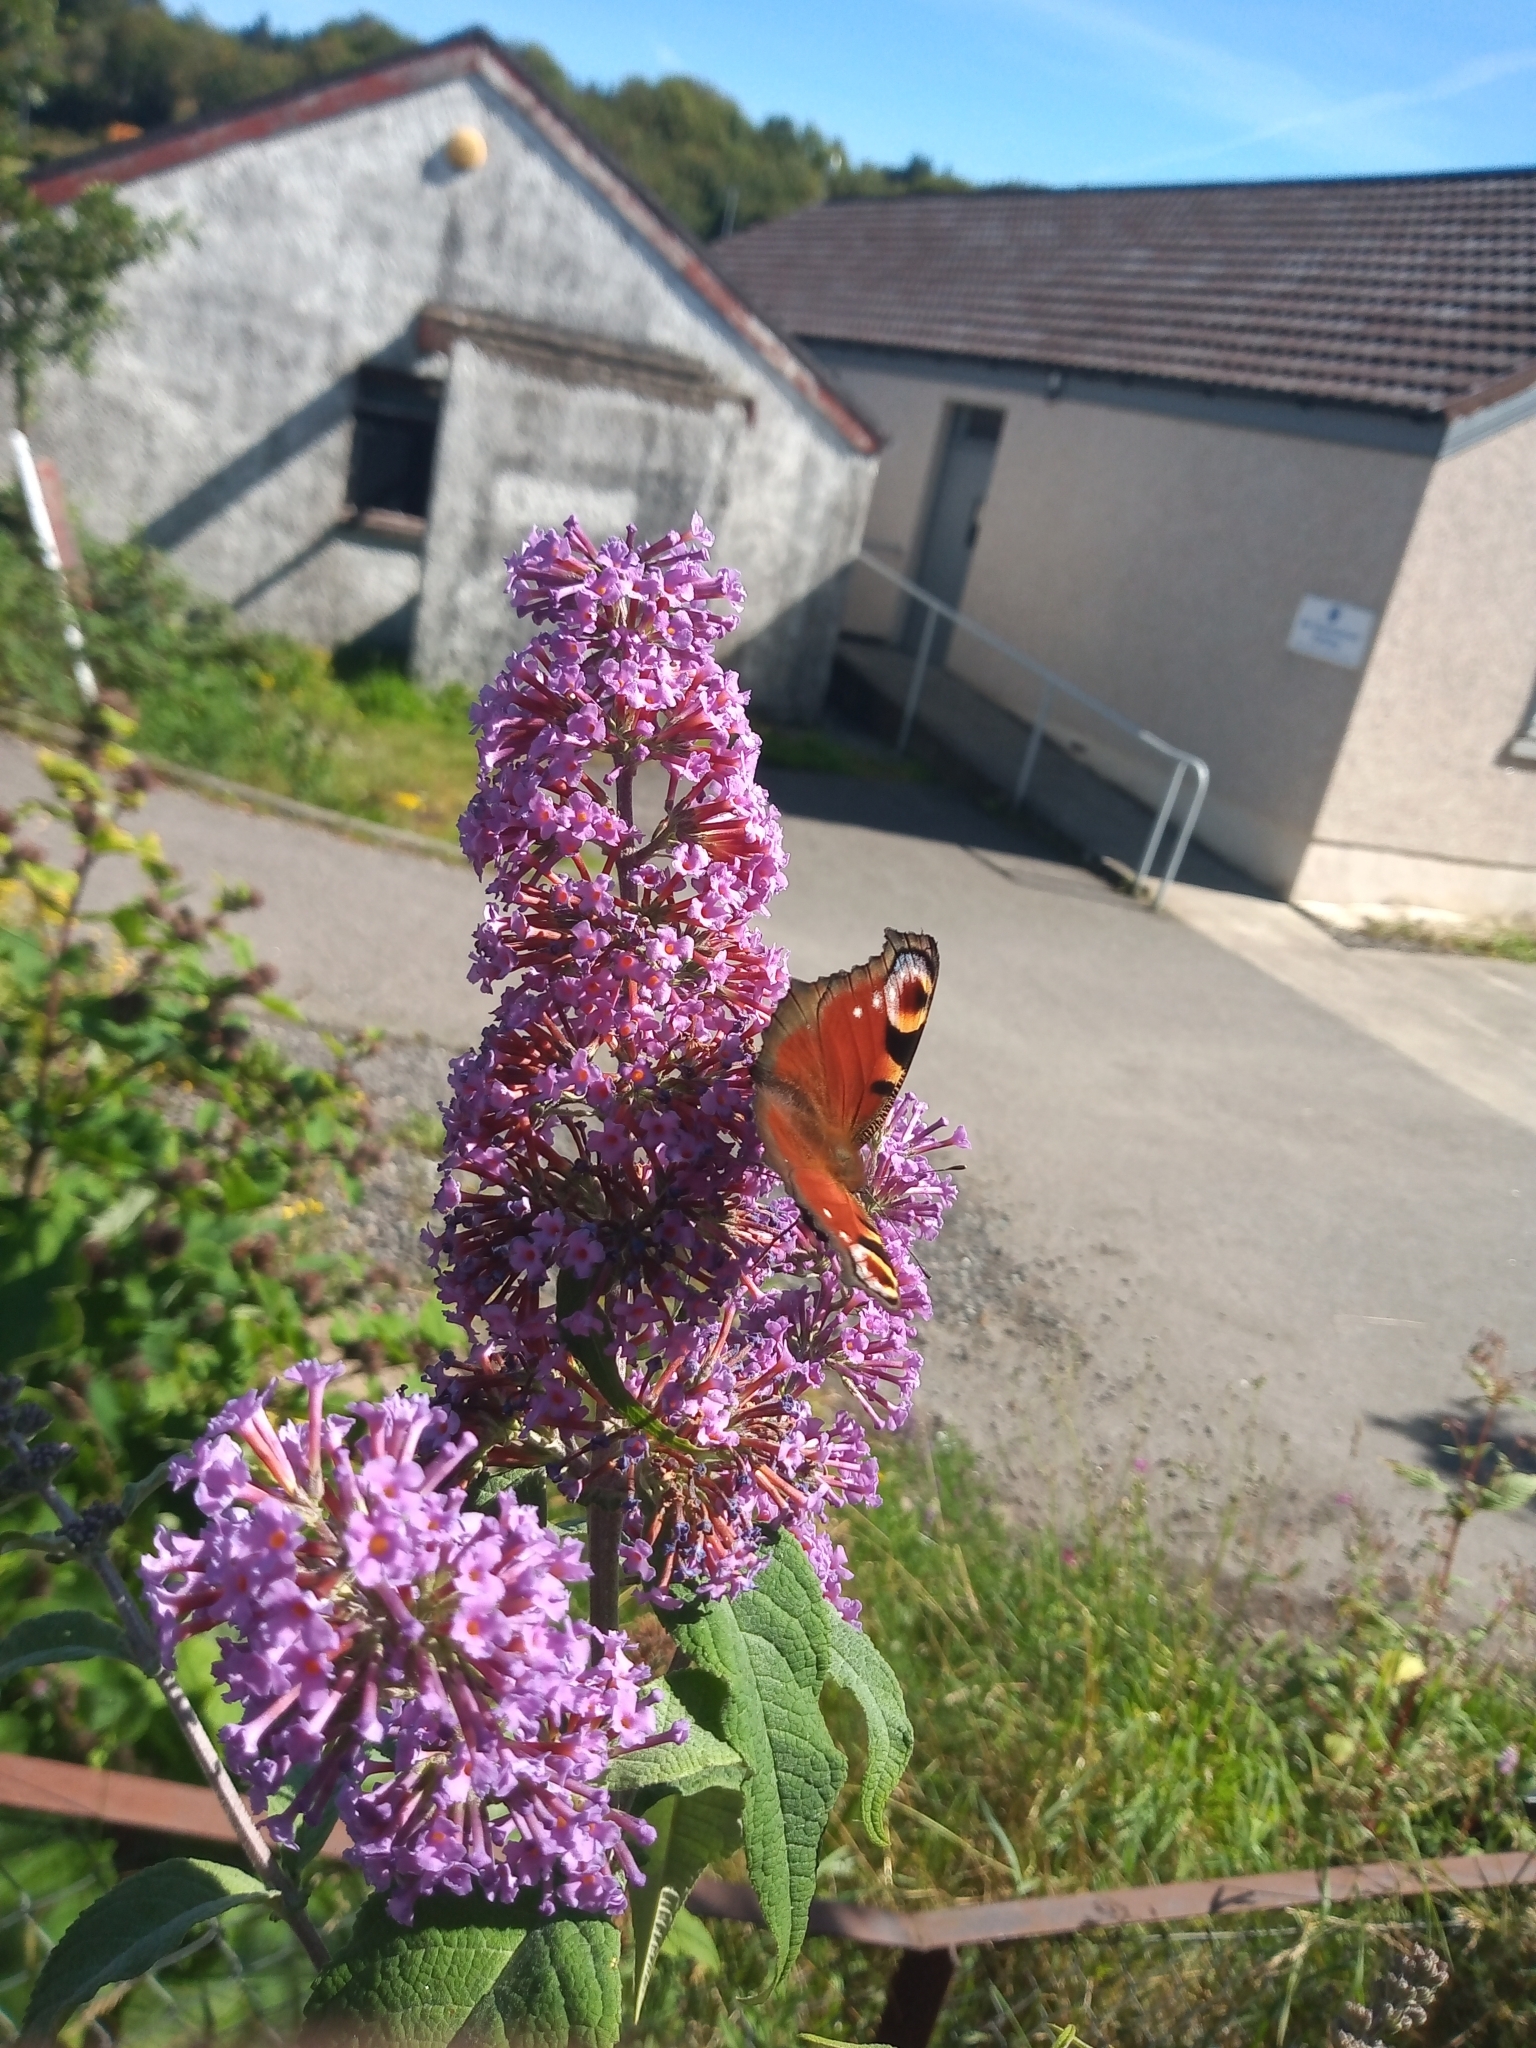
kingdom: Animalia
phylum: Arthropoda
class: Insecta
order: Lepidoptera
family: Nymphalidae
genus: Aglais
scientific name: Aglais io
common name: Peacock
